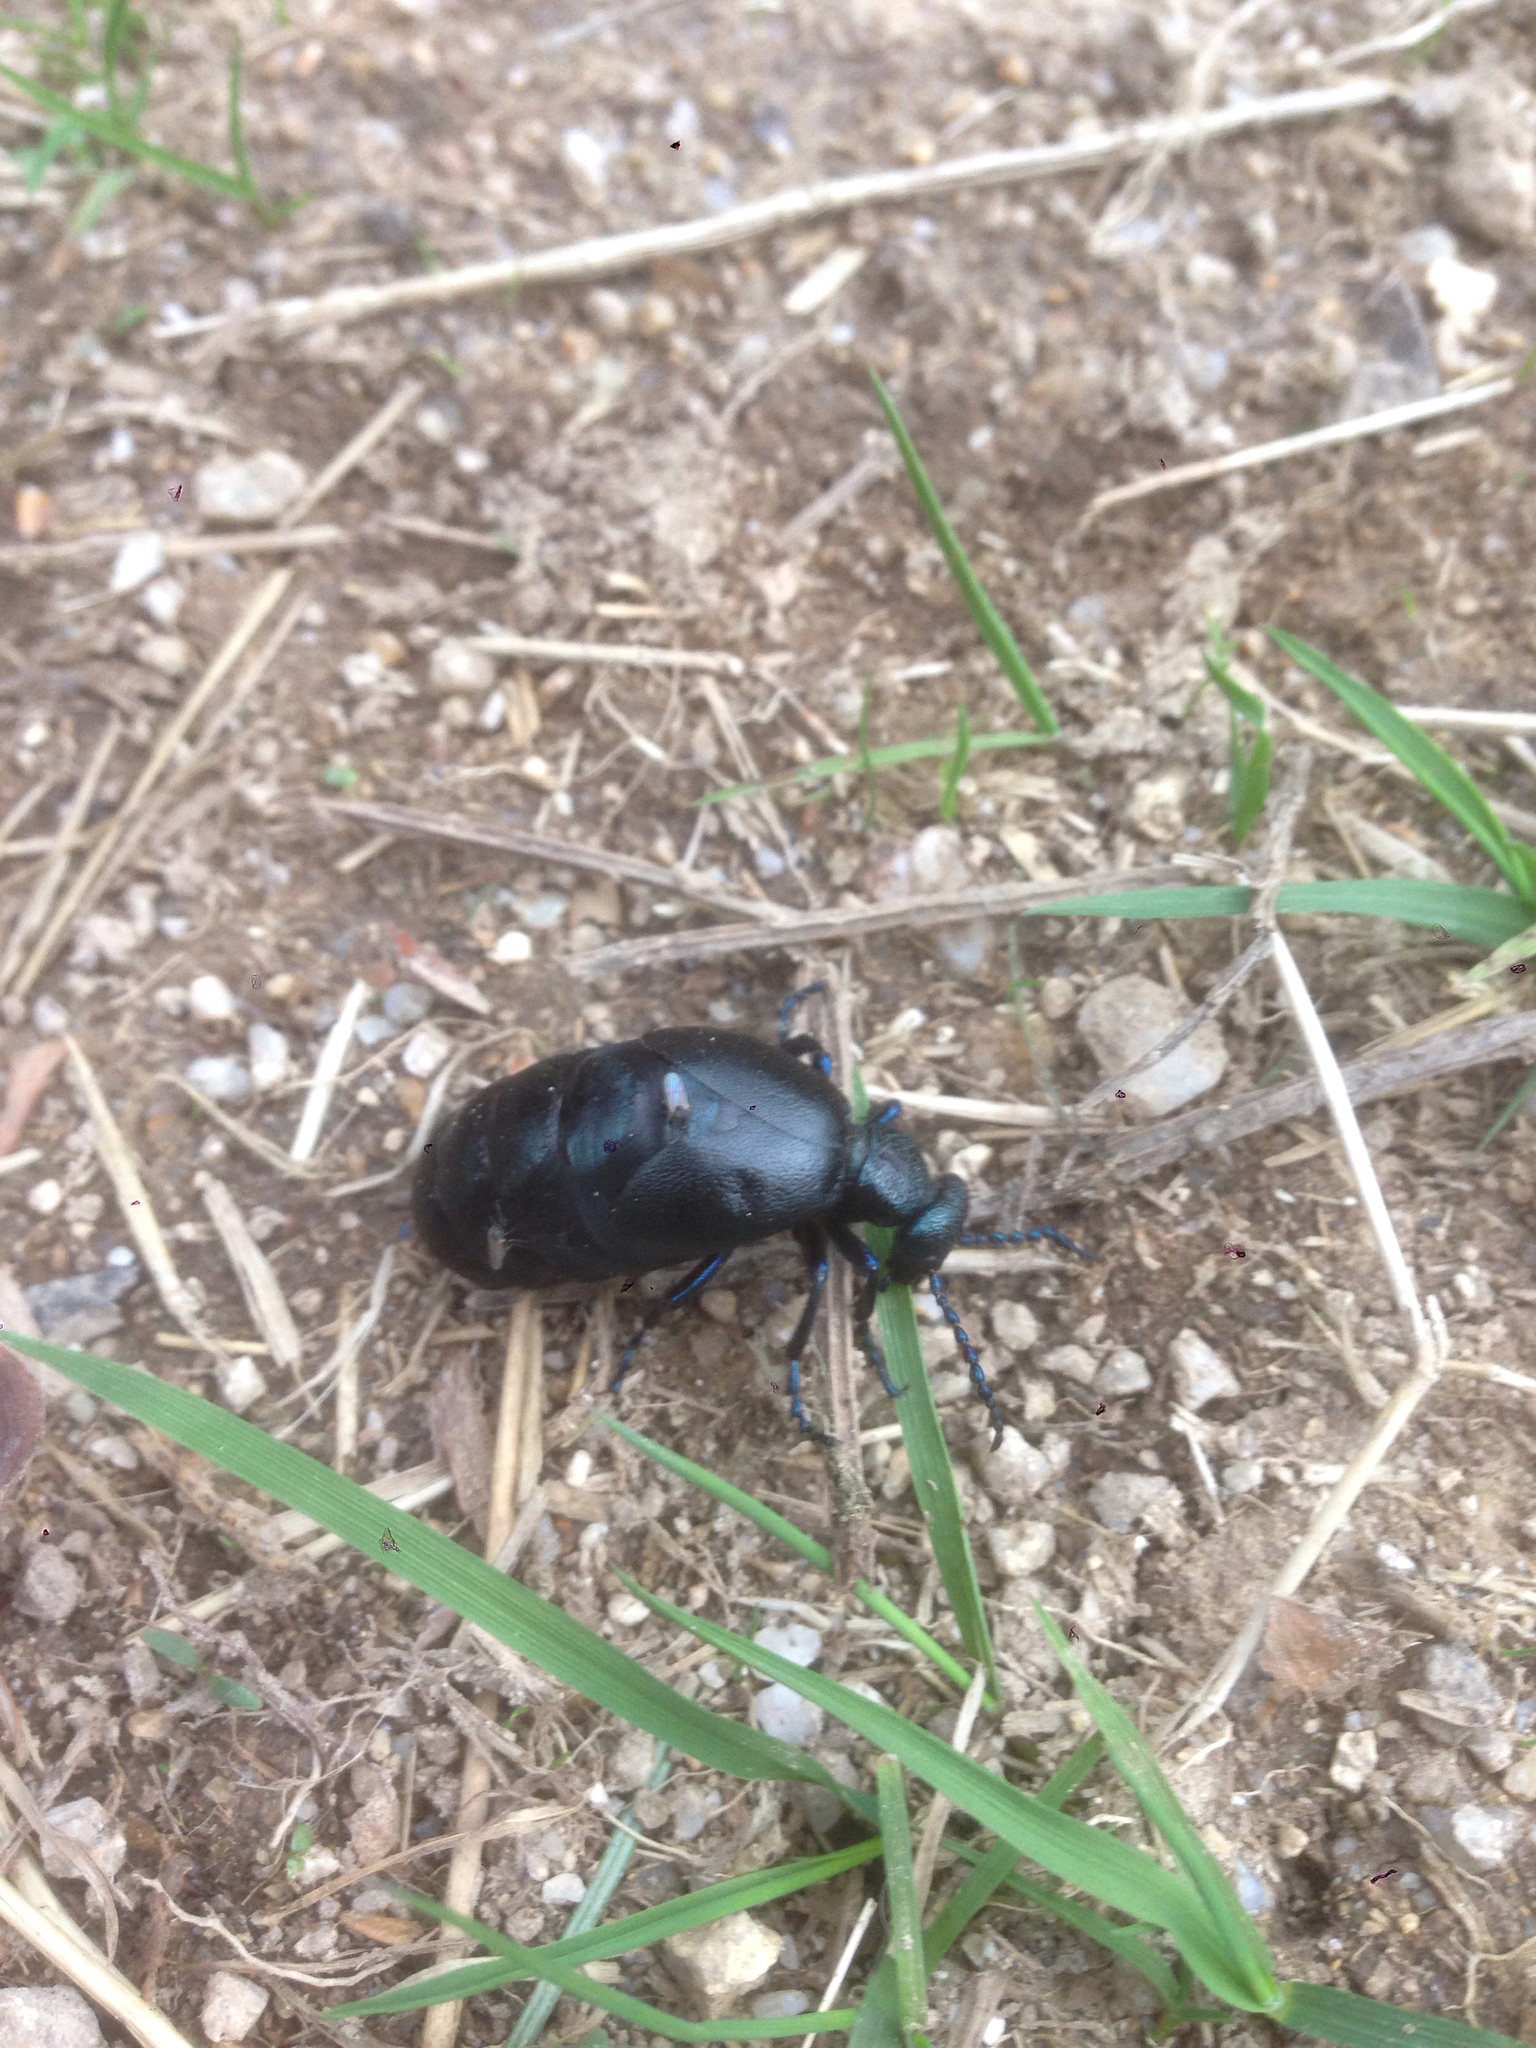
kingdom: Animalia
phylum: Arthropoda
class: Insecta
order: Coleoptera
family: Meloidae
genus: Meloe
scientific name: Meloe violaceus
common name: Violet oil-beetle
